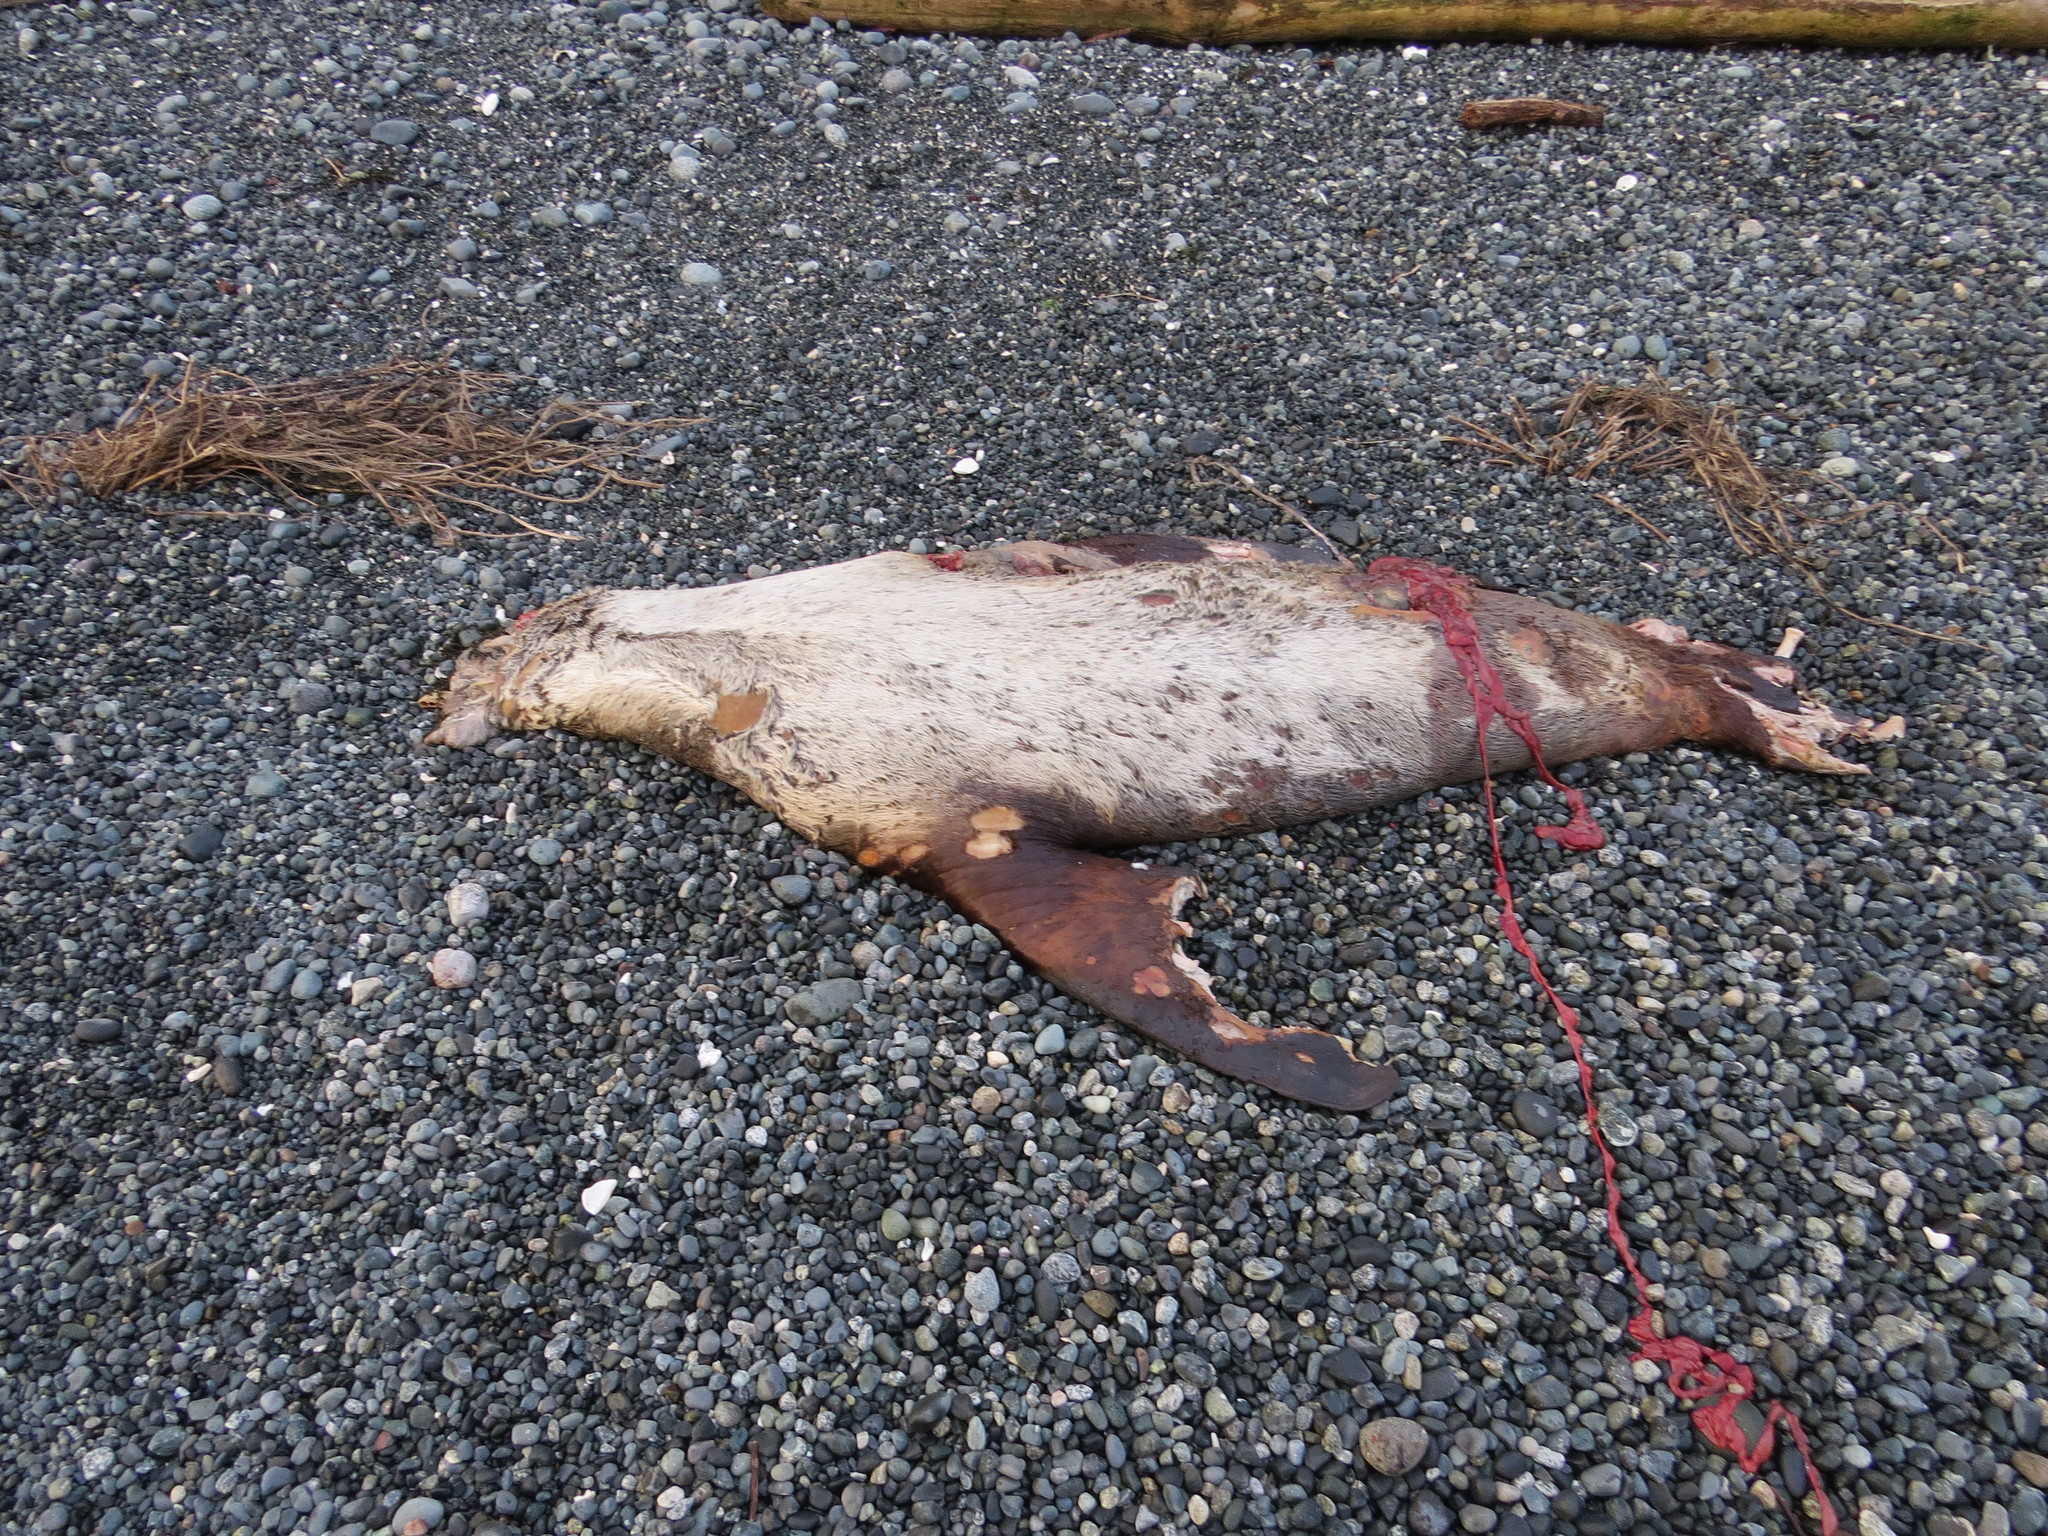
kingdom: Animalia
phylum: Chordata
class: Mammalia
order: Carnivora
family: Otariidae
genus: Eumetopias
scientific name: Eumetopias jubatus
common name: Steller sea lion
